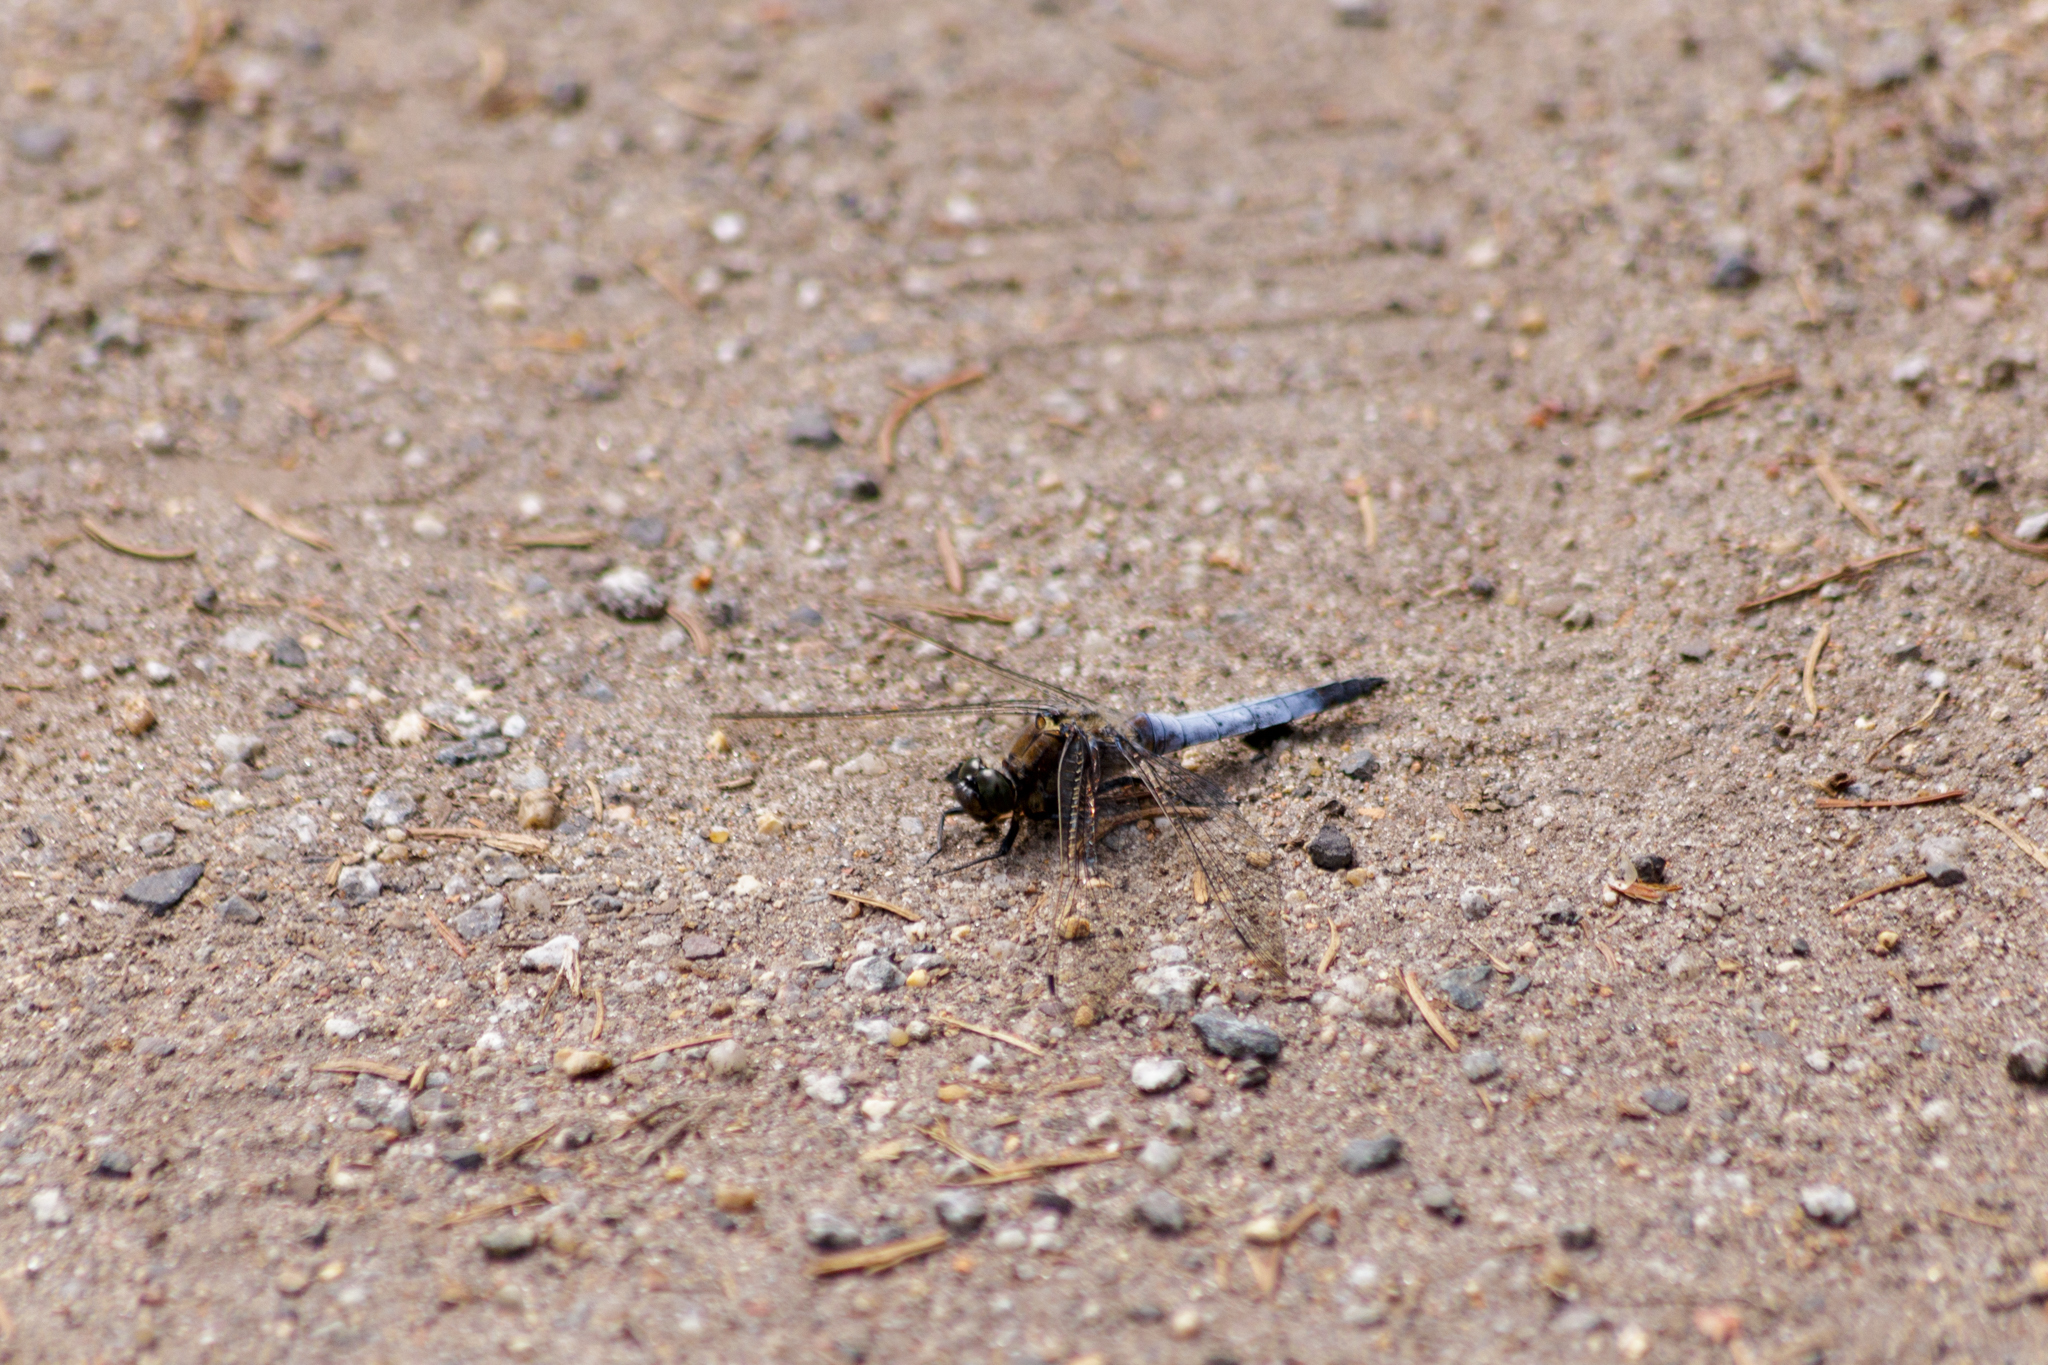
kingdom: Animalia
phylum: Arthropoda
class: Insecta
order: Odonata
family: Libellulidae
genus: Orthetrum
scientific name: Orthetrum cancellatum
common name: Black-tailed skimmer
